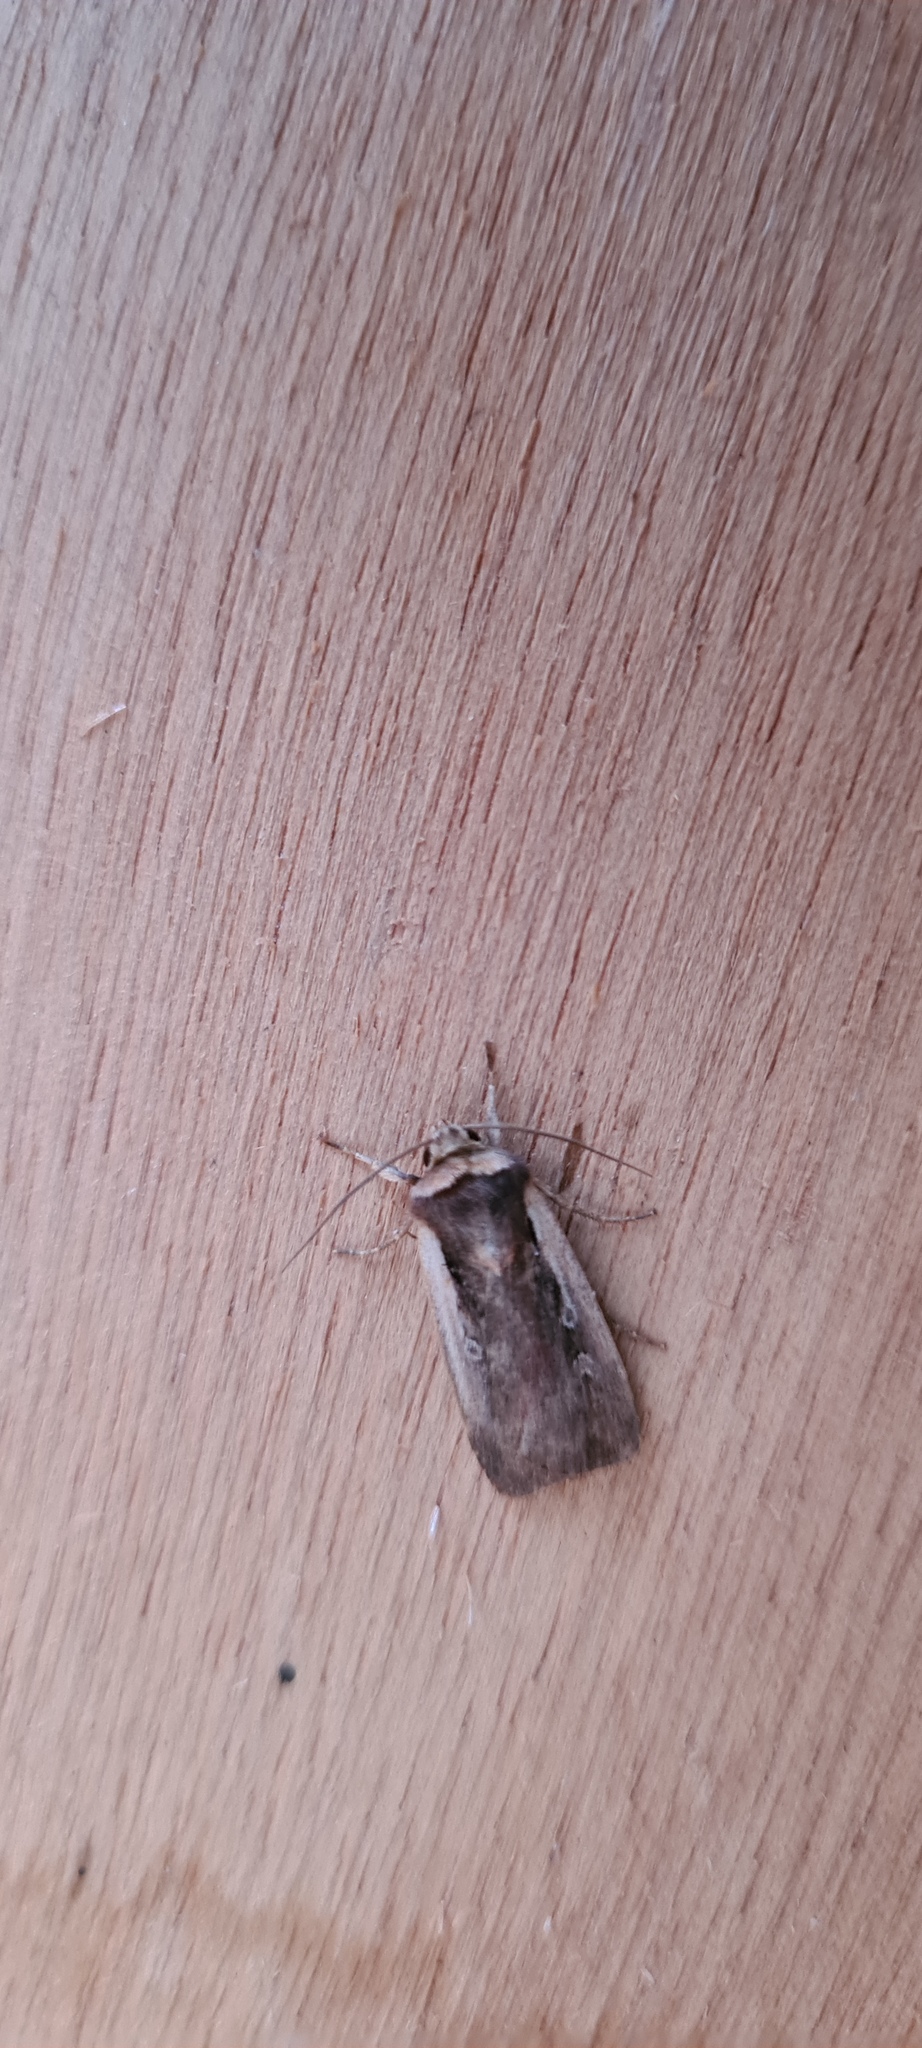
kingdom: Animalia
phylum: Arthropoda
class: Insecta
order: Lepidoptera
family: Noctuidae
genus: Ochropleura
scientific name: Ochropleura plecta
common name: Flame shoulder
